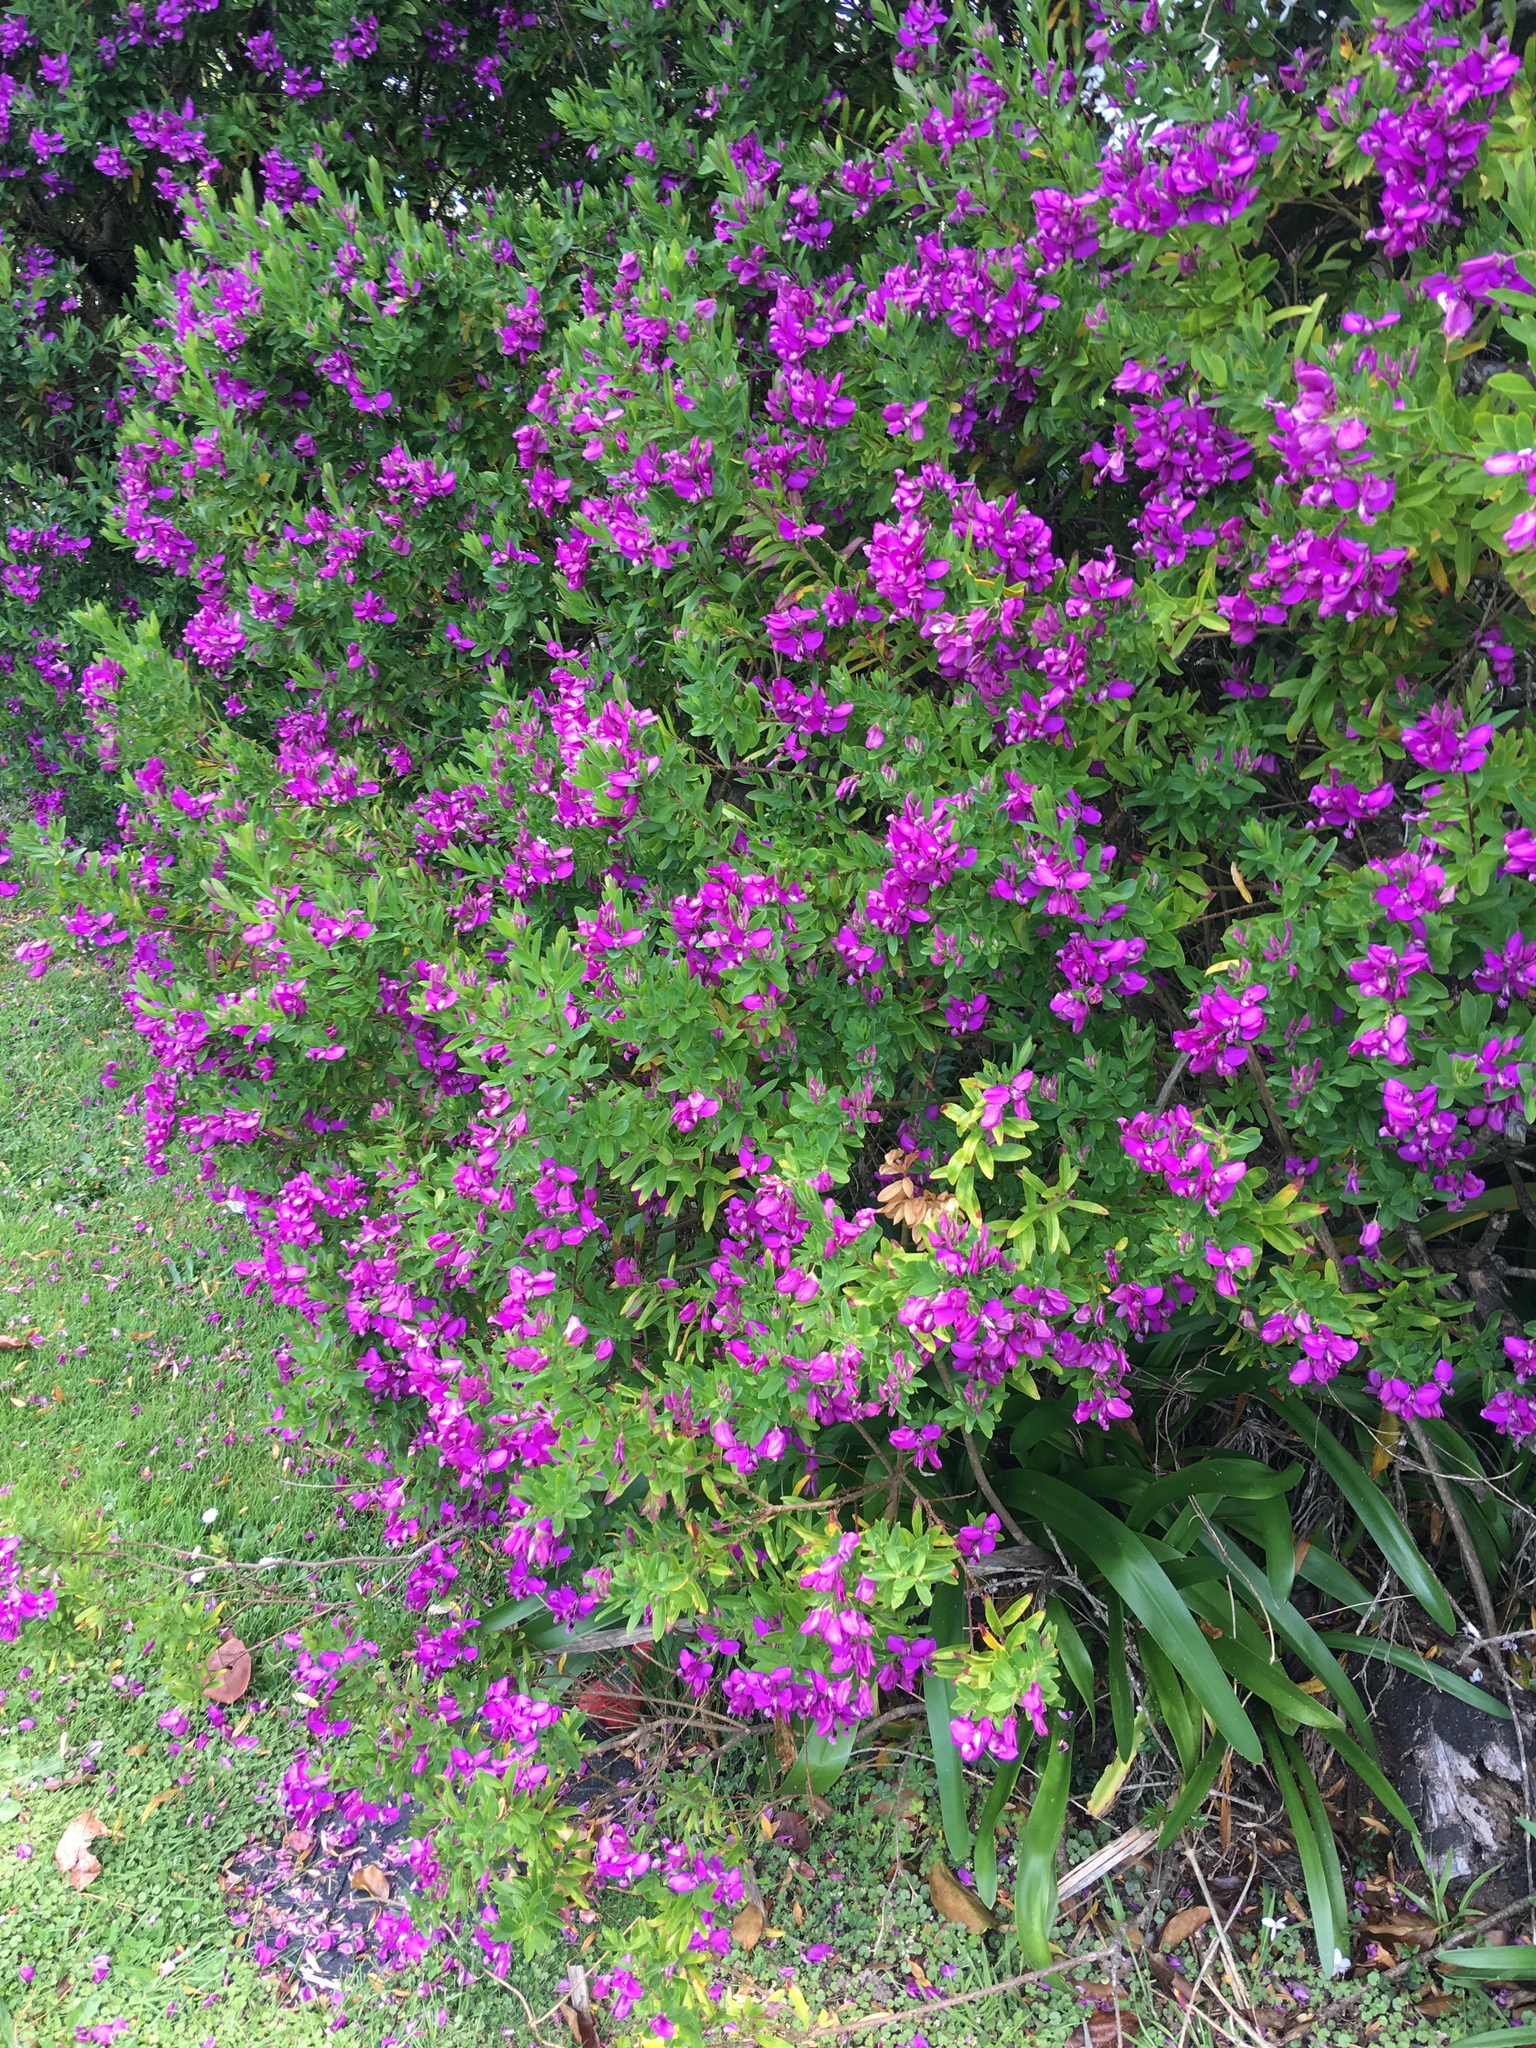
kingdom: Plantae
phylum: Tracheophyta
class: Magnoliopsida
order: Fabales
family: Polygalaceae
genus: Polygala
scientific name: Polygala myrtifolia
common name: Myrtle-leaf milkwort
